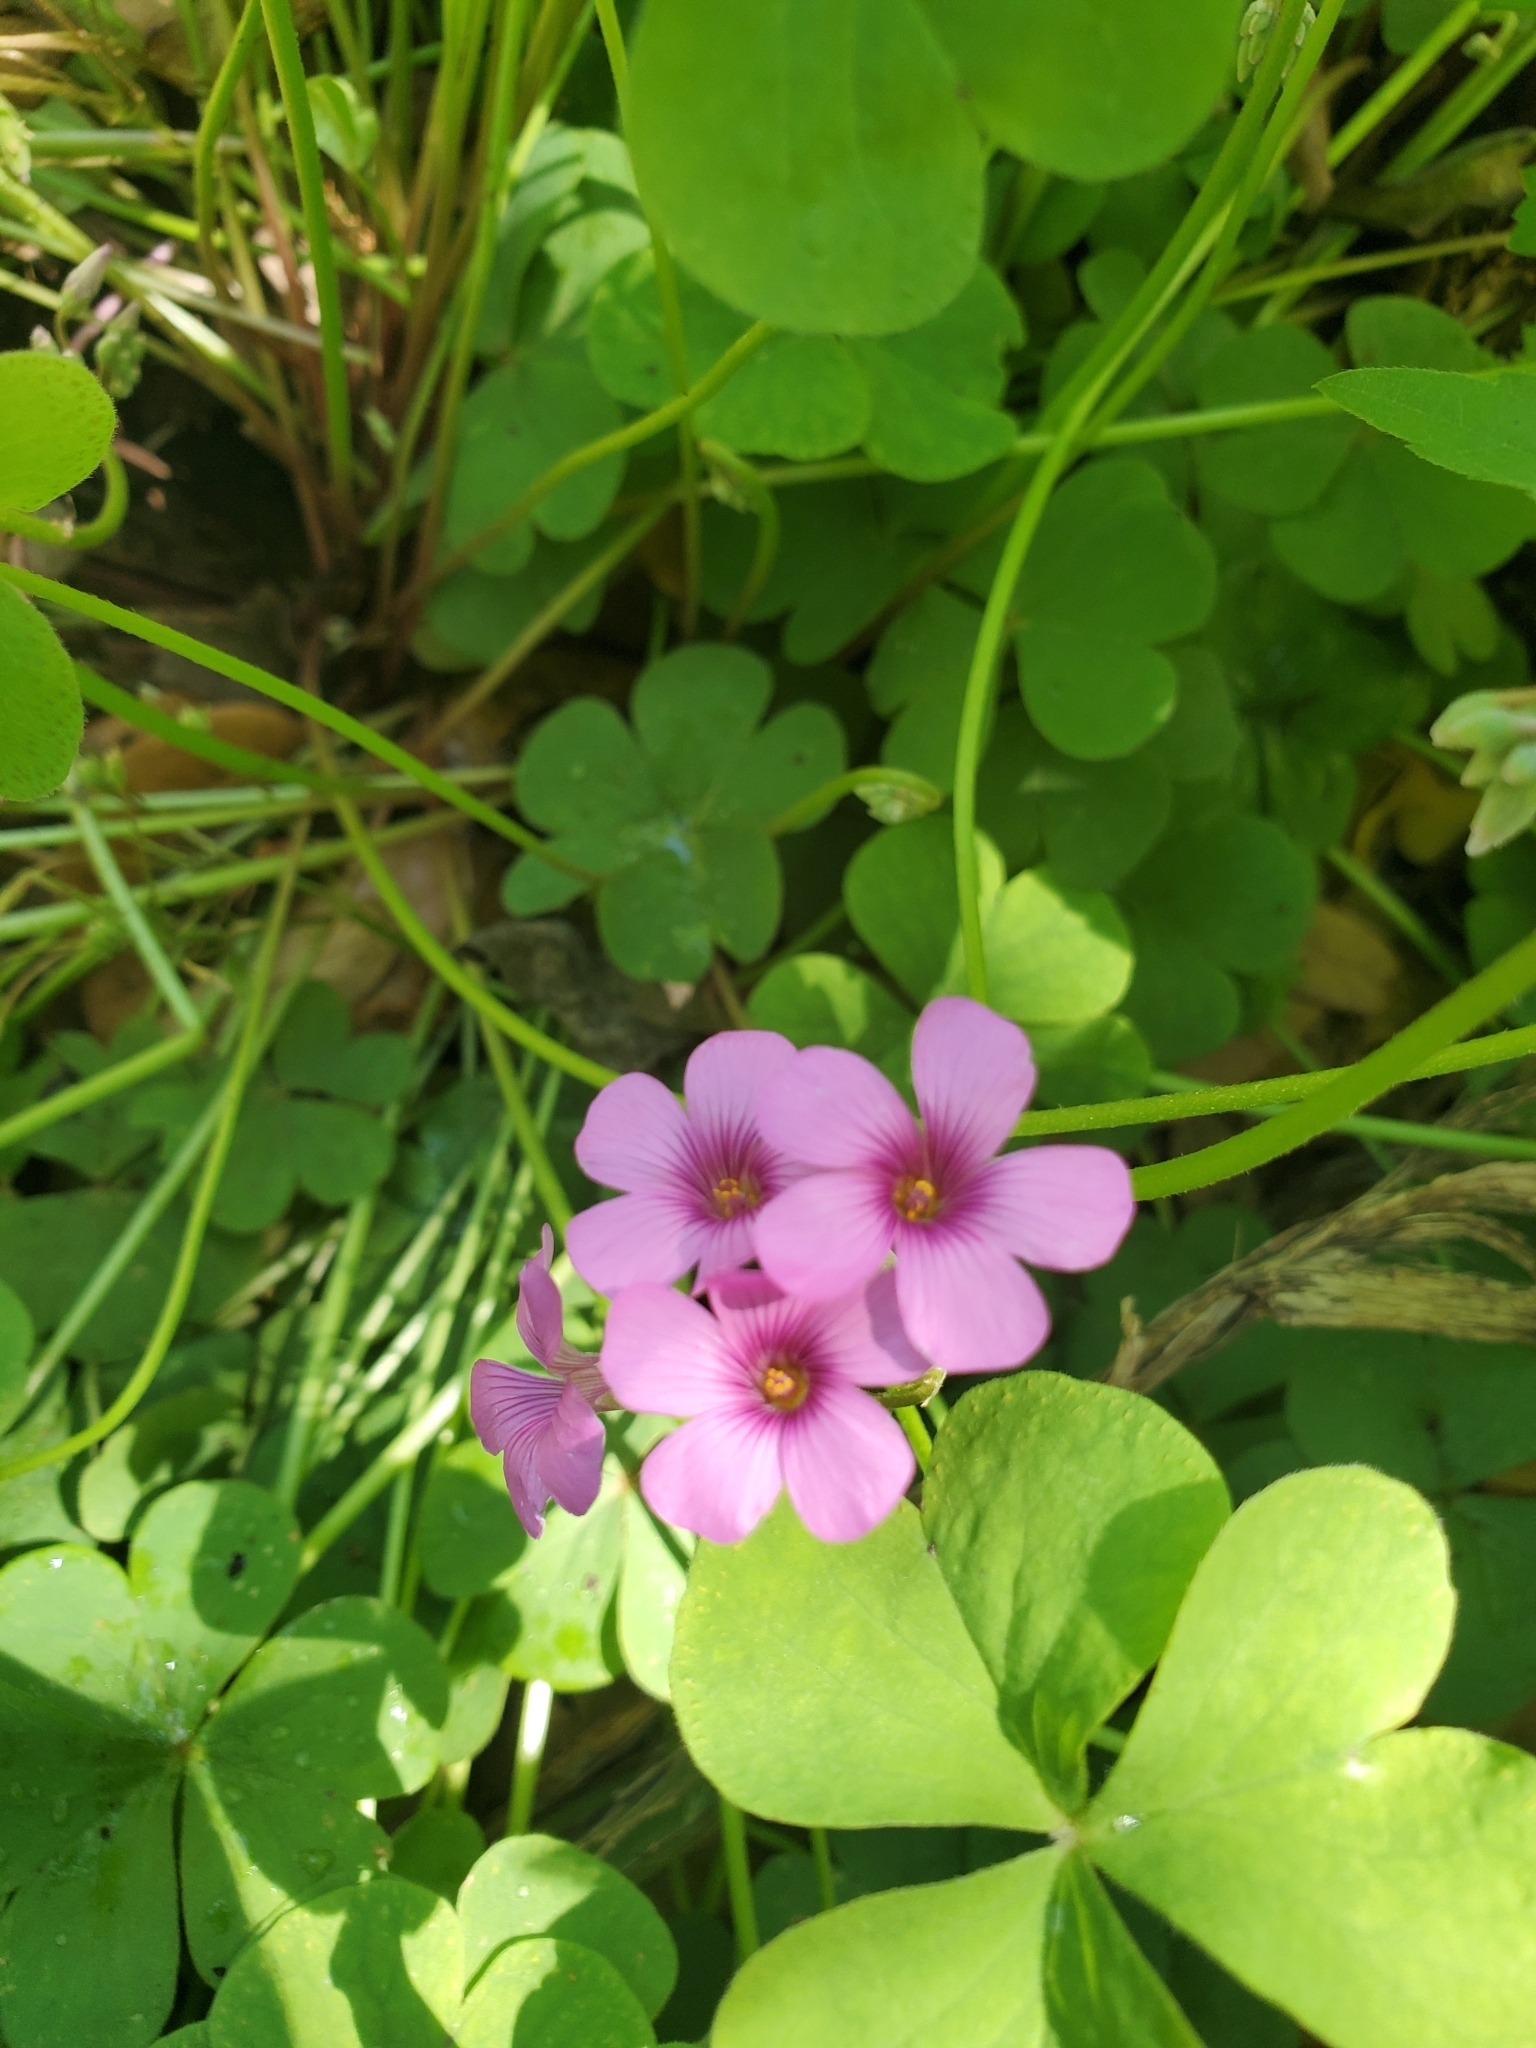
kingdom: Plantae
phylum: Tracheophyta
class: Magnoliopsida
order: Oxalidales
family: Oxalidaceae
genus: Oxalis
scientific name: Oxalis articulata
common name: Pink-sorrel
